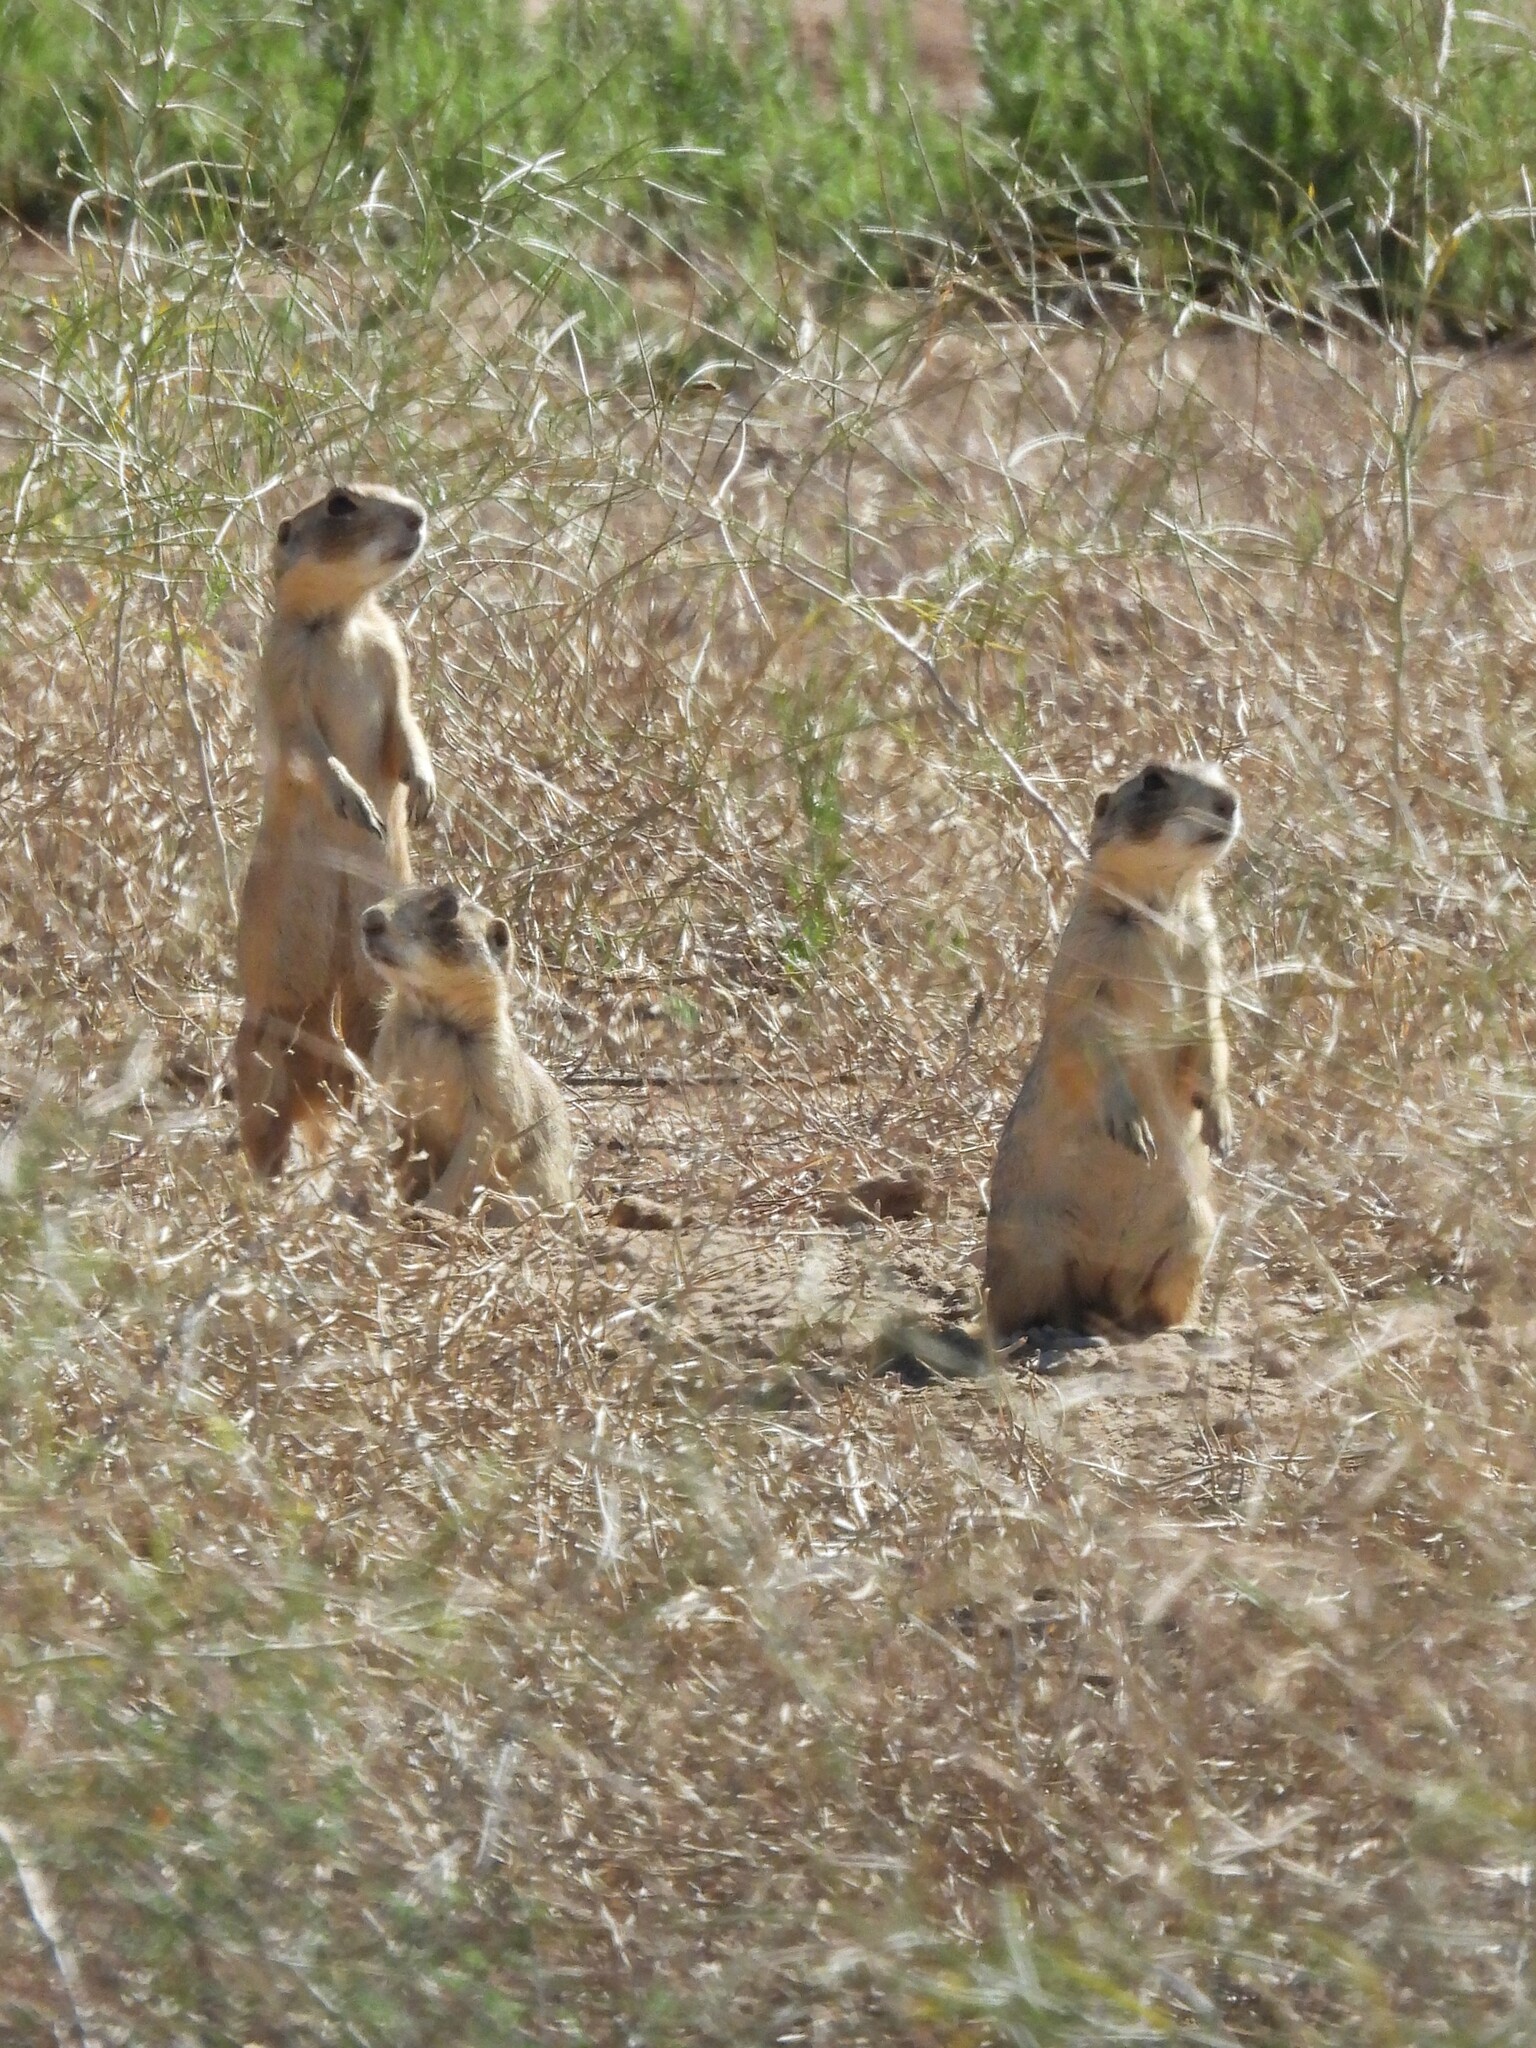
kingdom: Animalia
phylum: Chordata
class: Mammalia
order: Rodentia
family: Sciuridae
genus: Cynomys
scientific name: Cynomys leucurus
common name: White-tailed prairie dog
